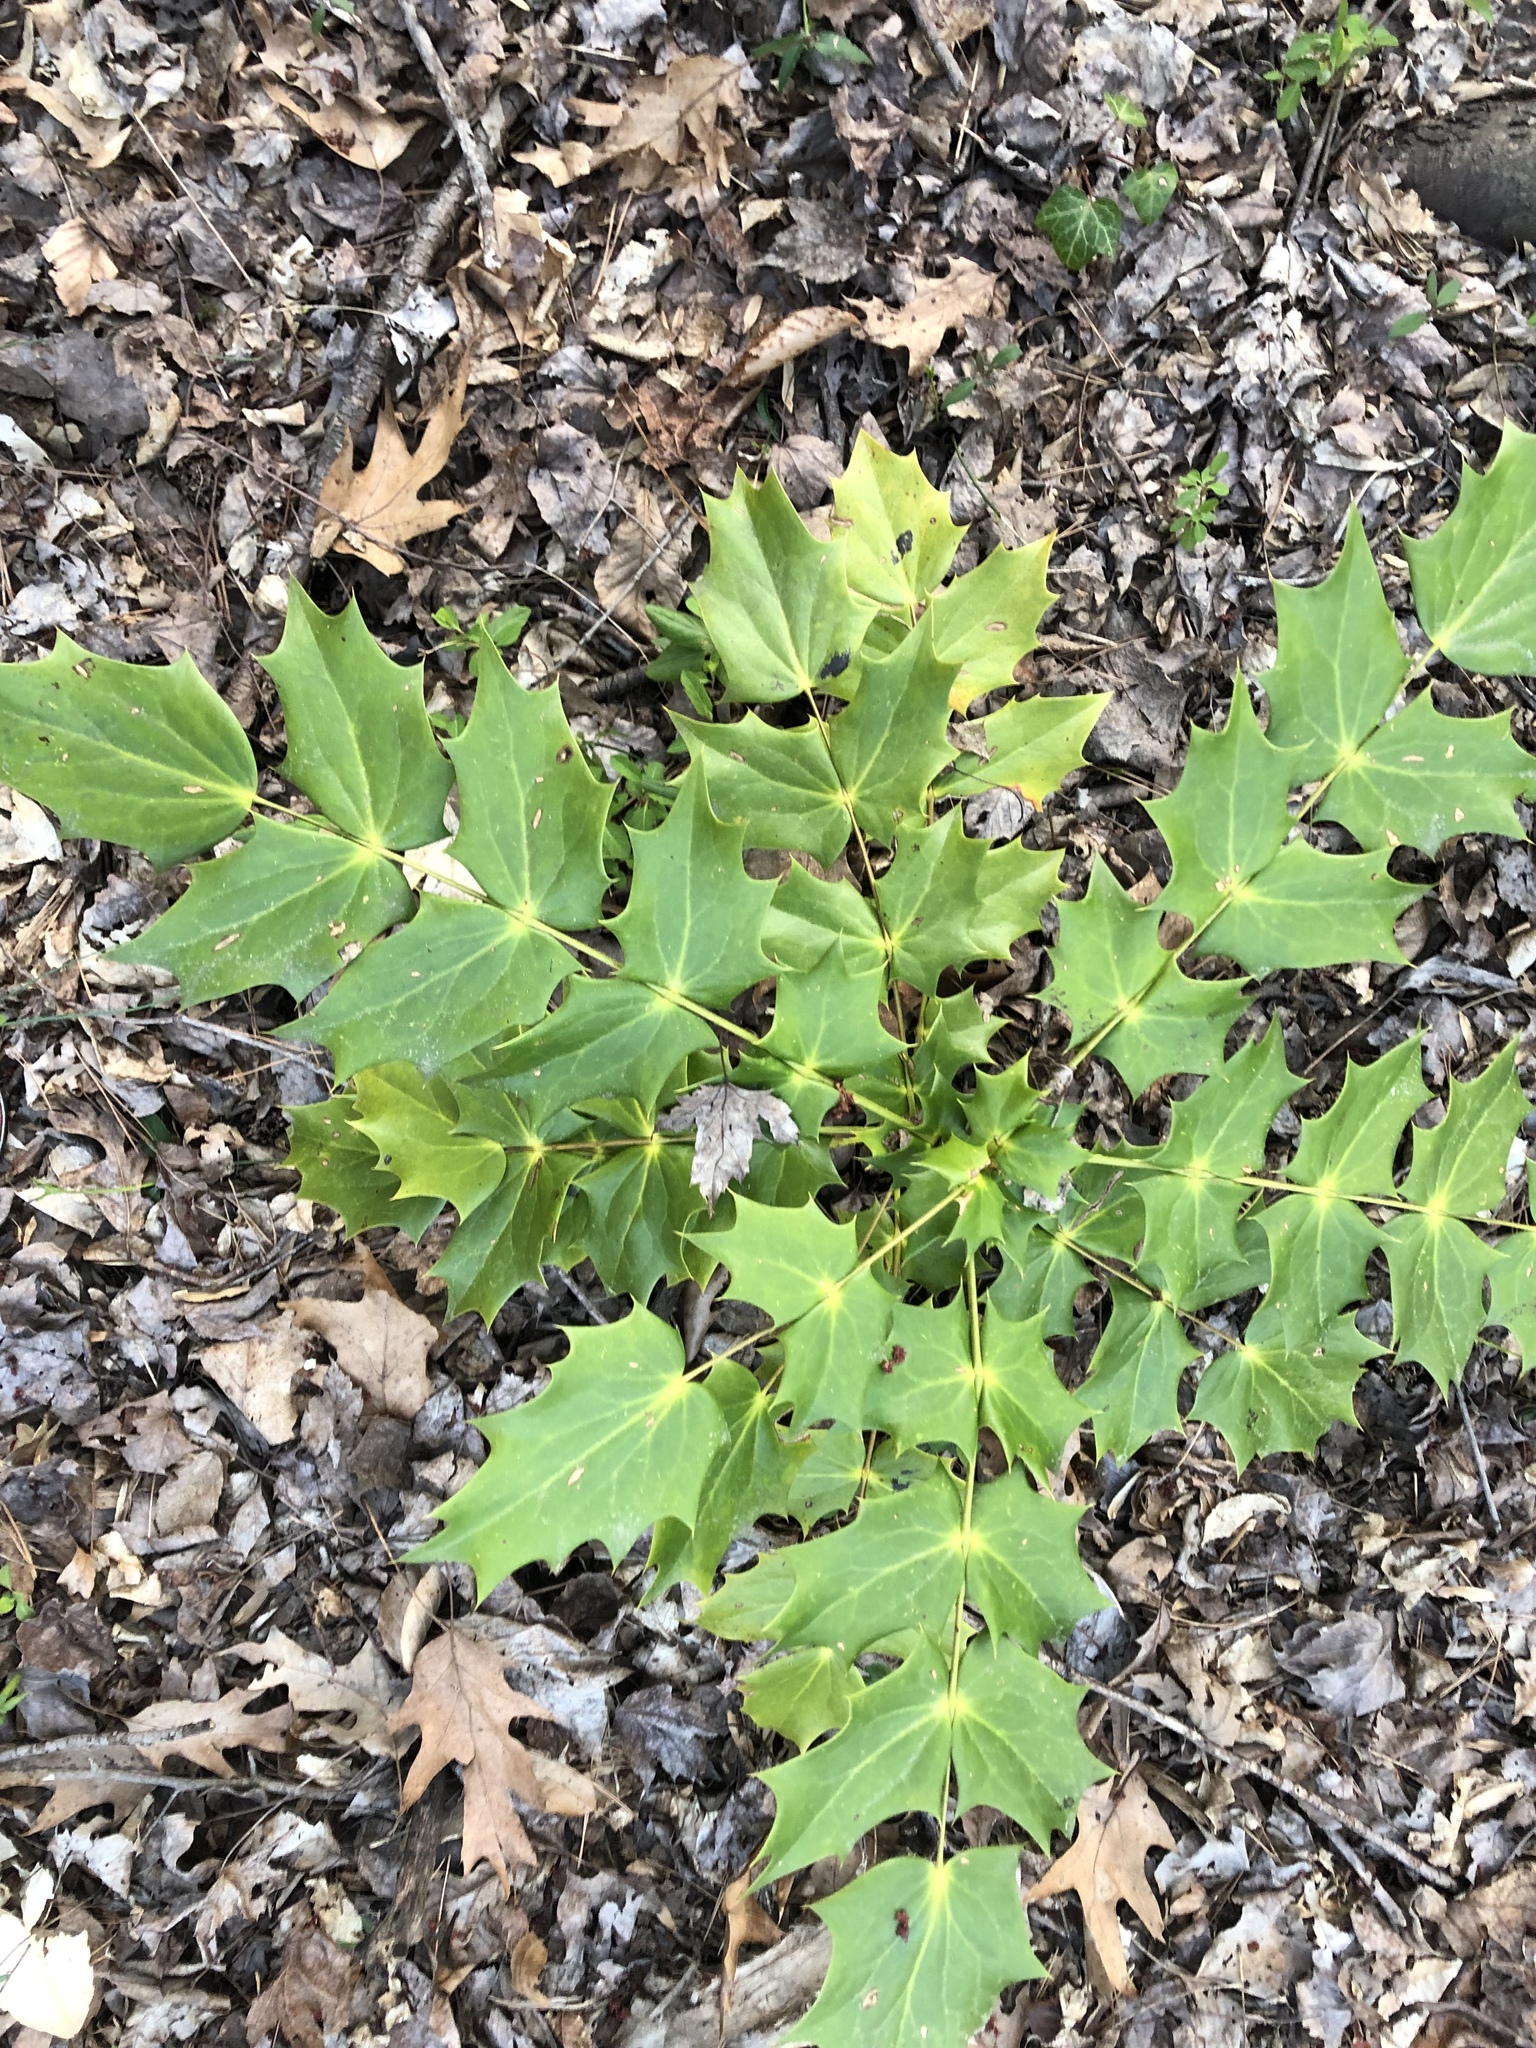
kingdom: Plantae
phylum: Tracheophyta
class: Magnoliopsida
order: Ranunculales
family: Berberidaceae
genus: Mahonia
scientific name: Mahonia bealei
